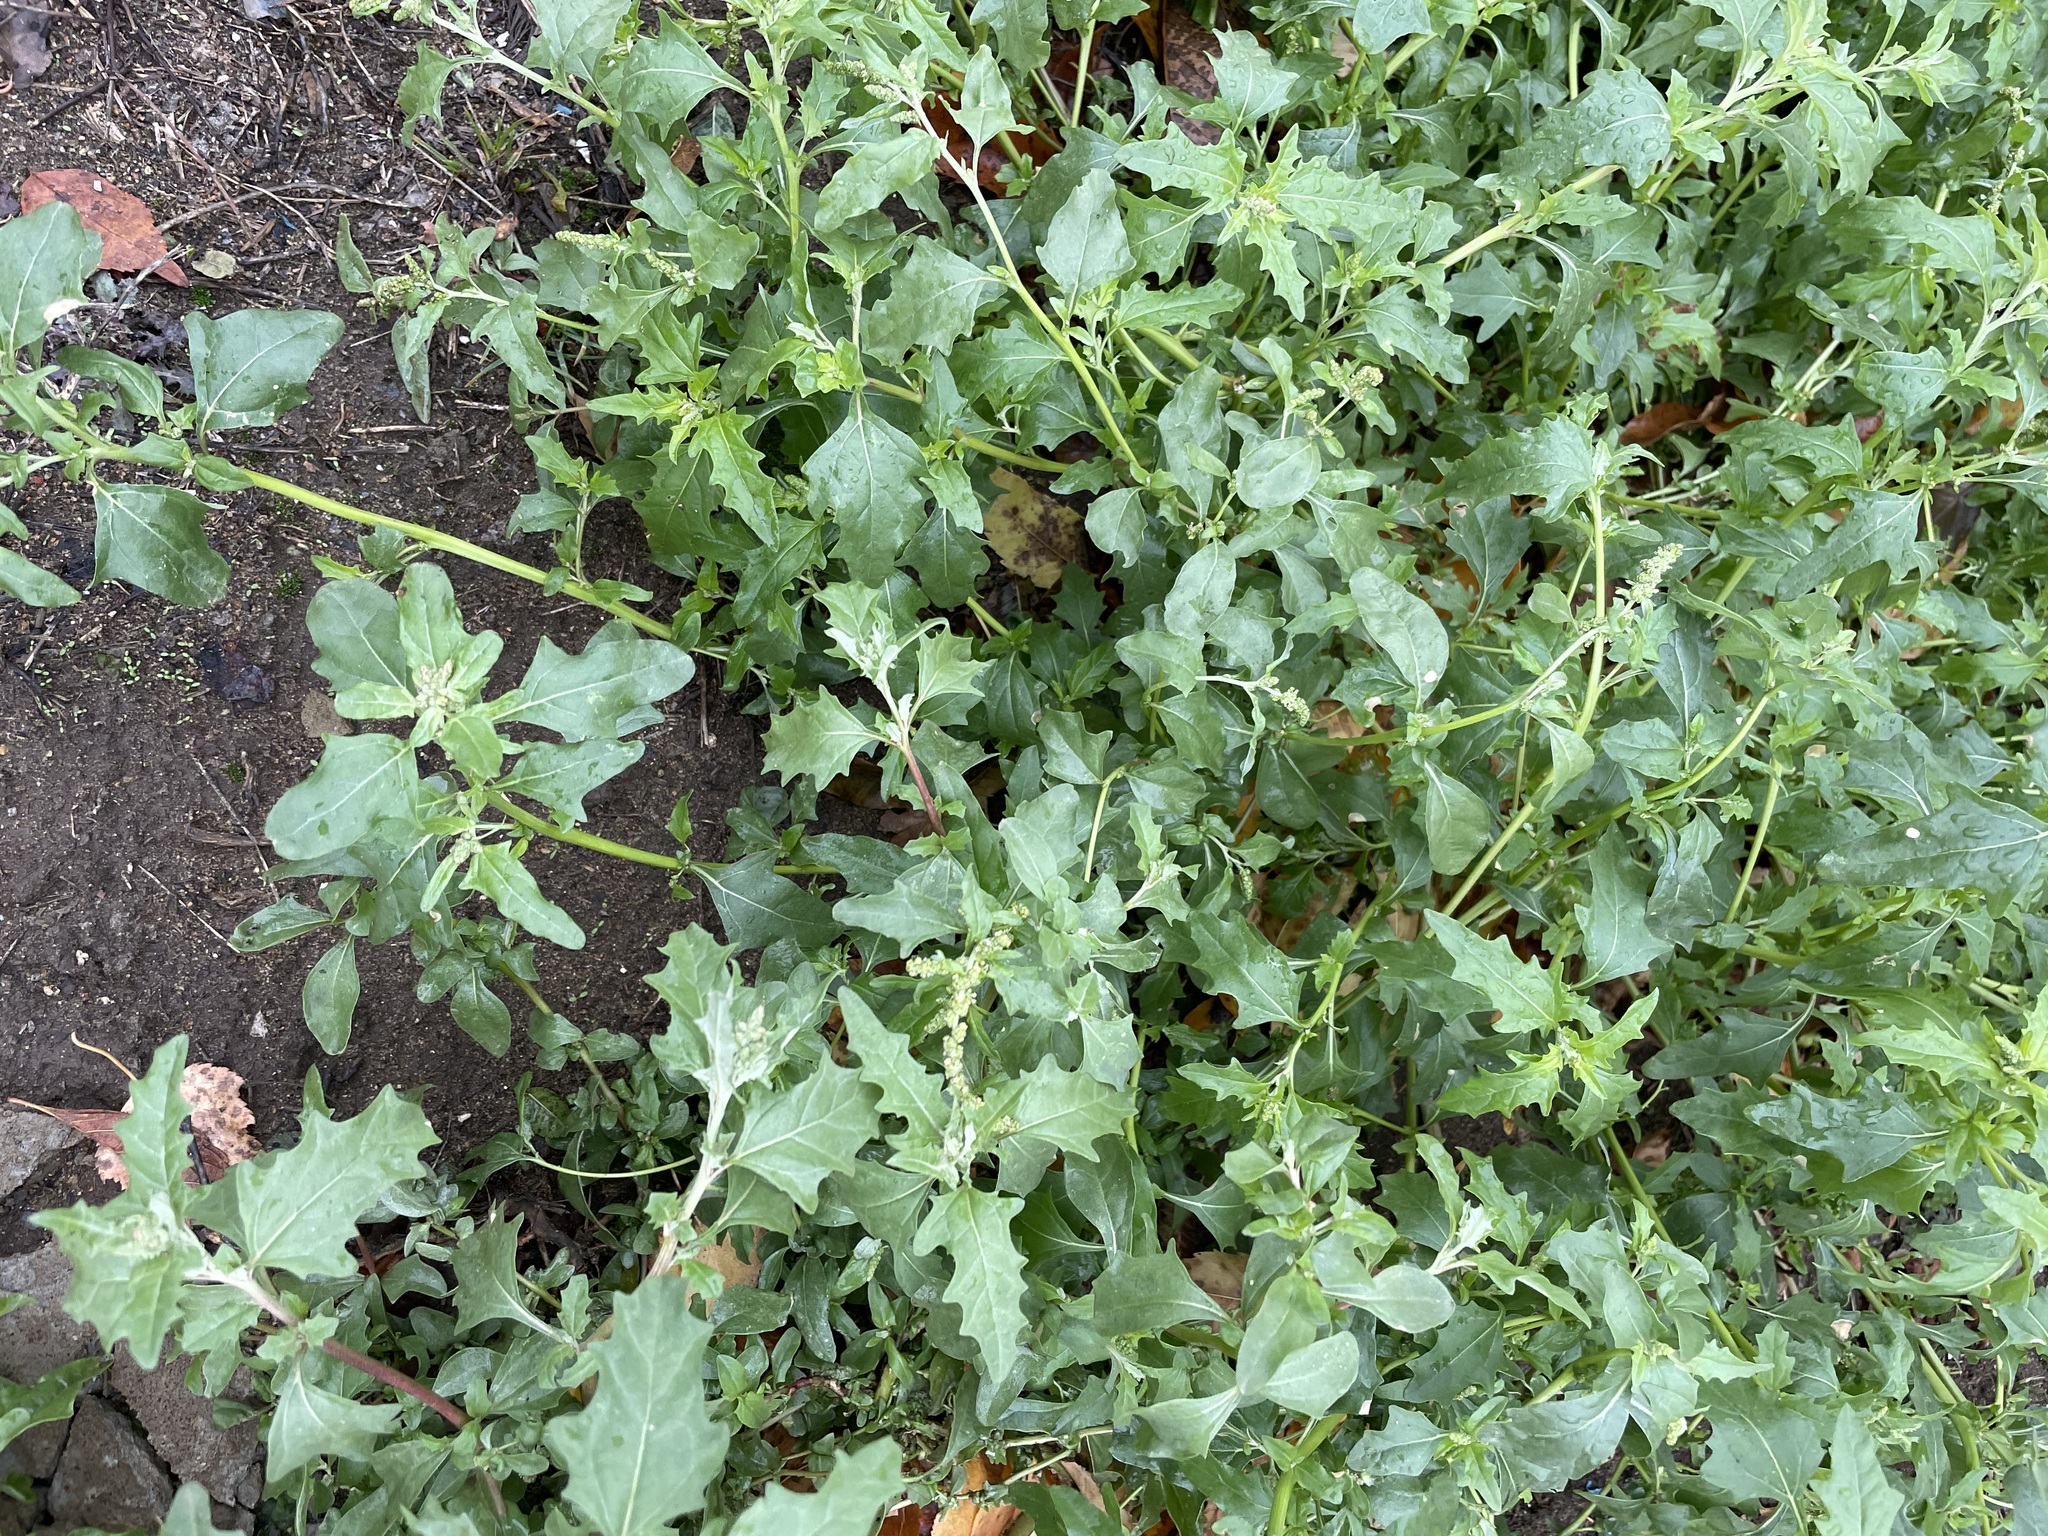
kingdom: Plantae
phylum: Tracheophyta
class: Magnoliopsida
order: Caryophyllales
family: Amaranthaceae
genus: Atriplex
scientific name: Atriplex tatarica
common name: Tatarian orache
